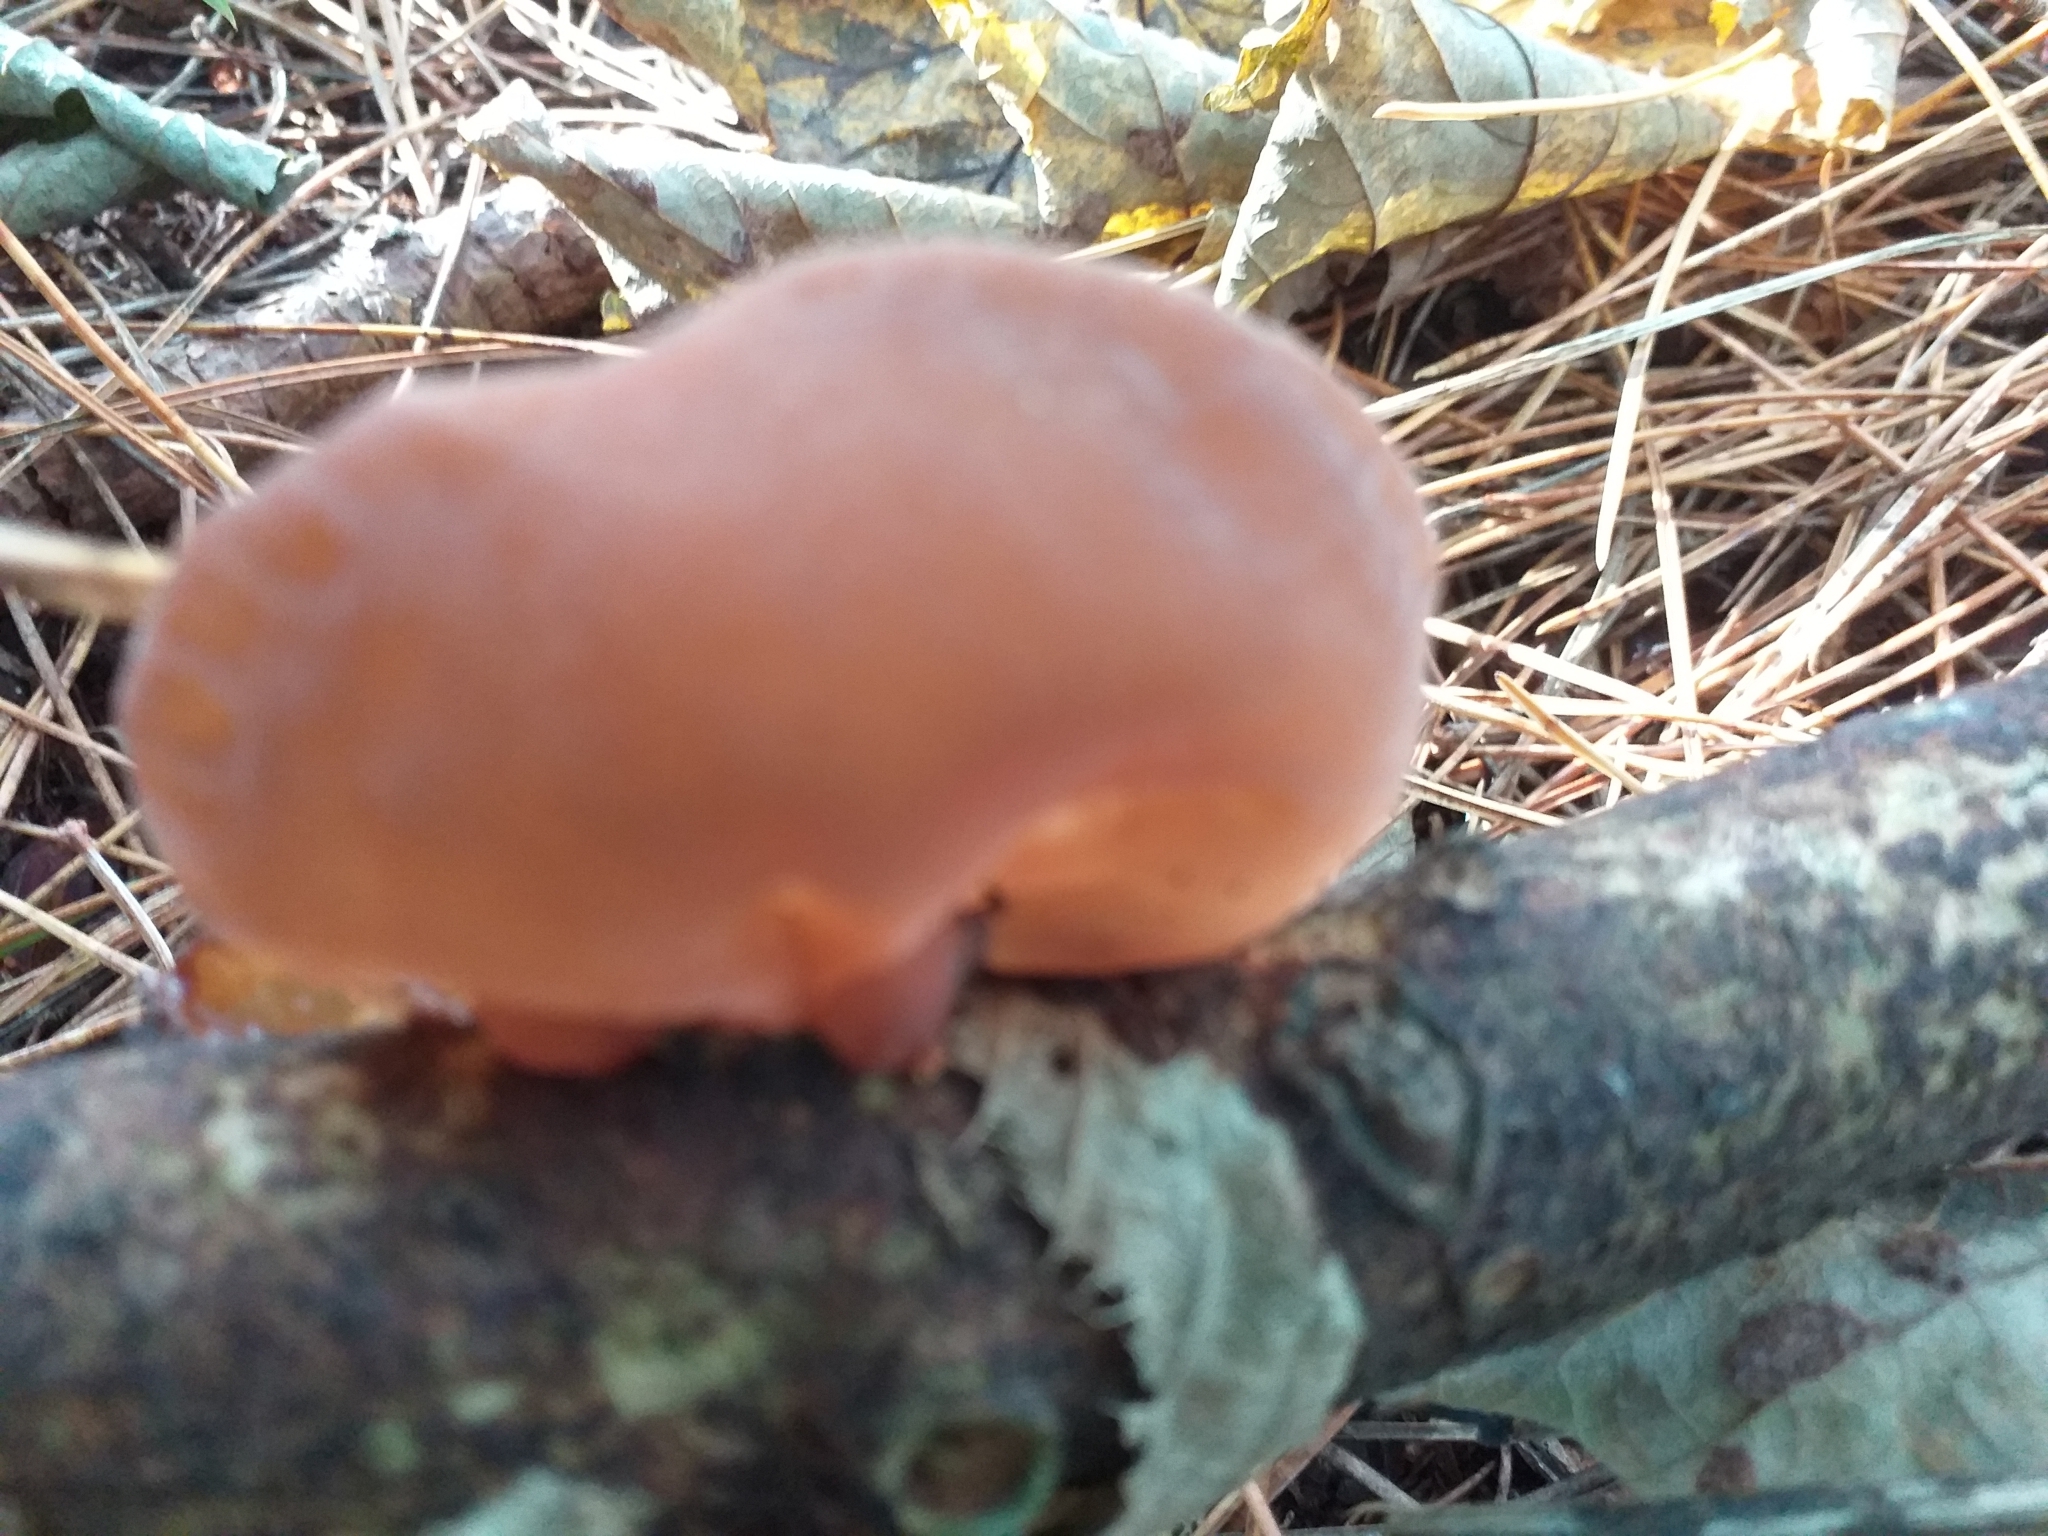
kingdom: Fungi
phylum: Basidiomycota
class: Agaricomycetes
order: Auriculariales
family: Auriculariaceae
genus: Auricularia
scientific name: Auricularia auricula-judae
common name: Jelly ear
